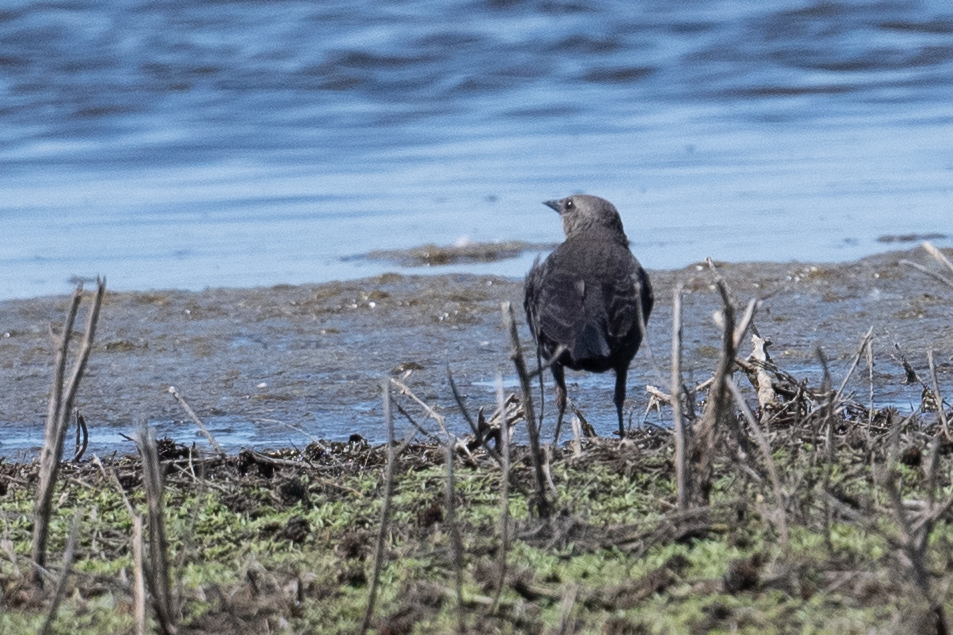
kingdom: Animalia
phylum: Chordata
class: Aves
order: Passeriformes
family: Icteridae
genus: Euphagus
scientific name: Euphagus cyanocephalus
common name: Brewer's blackbird
